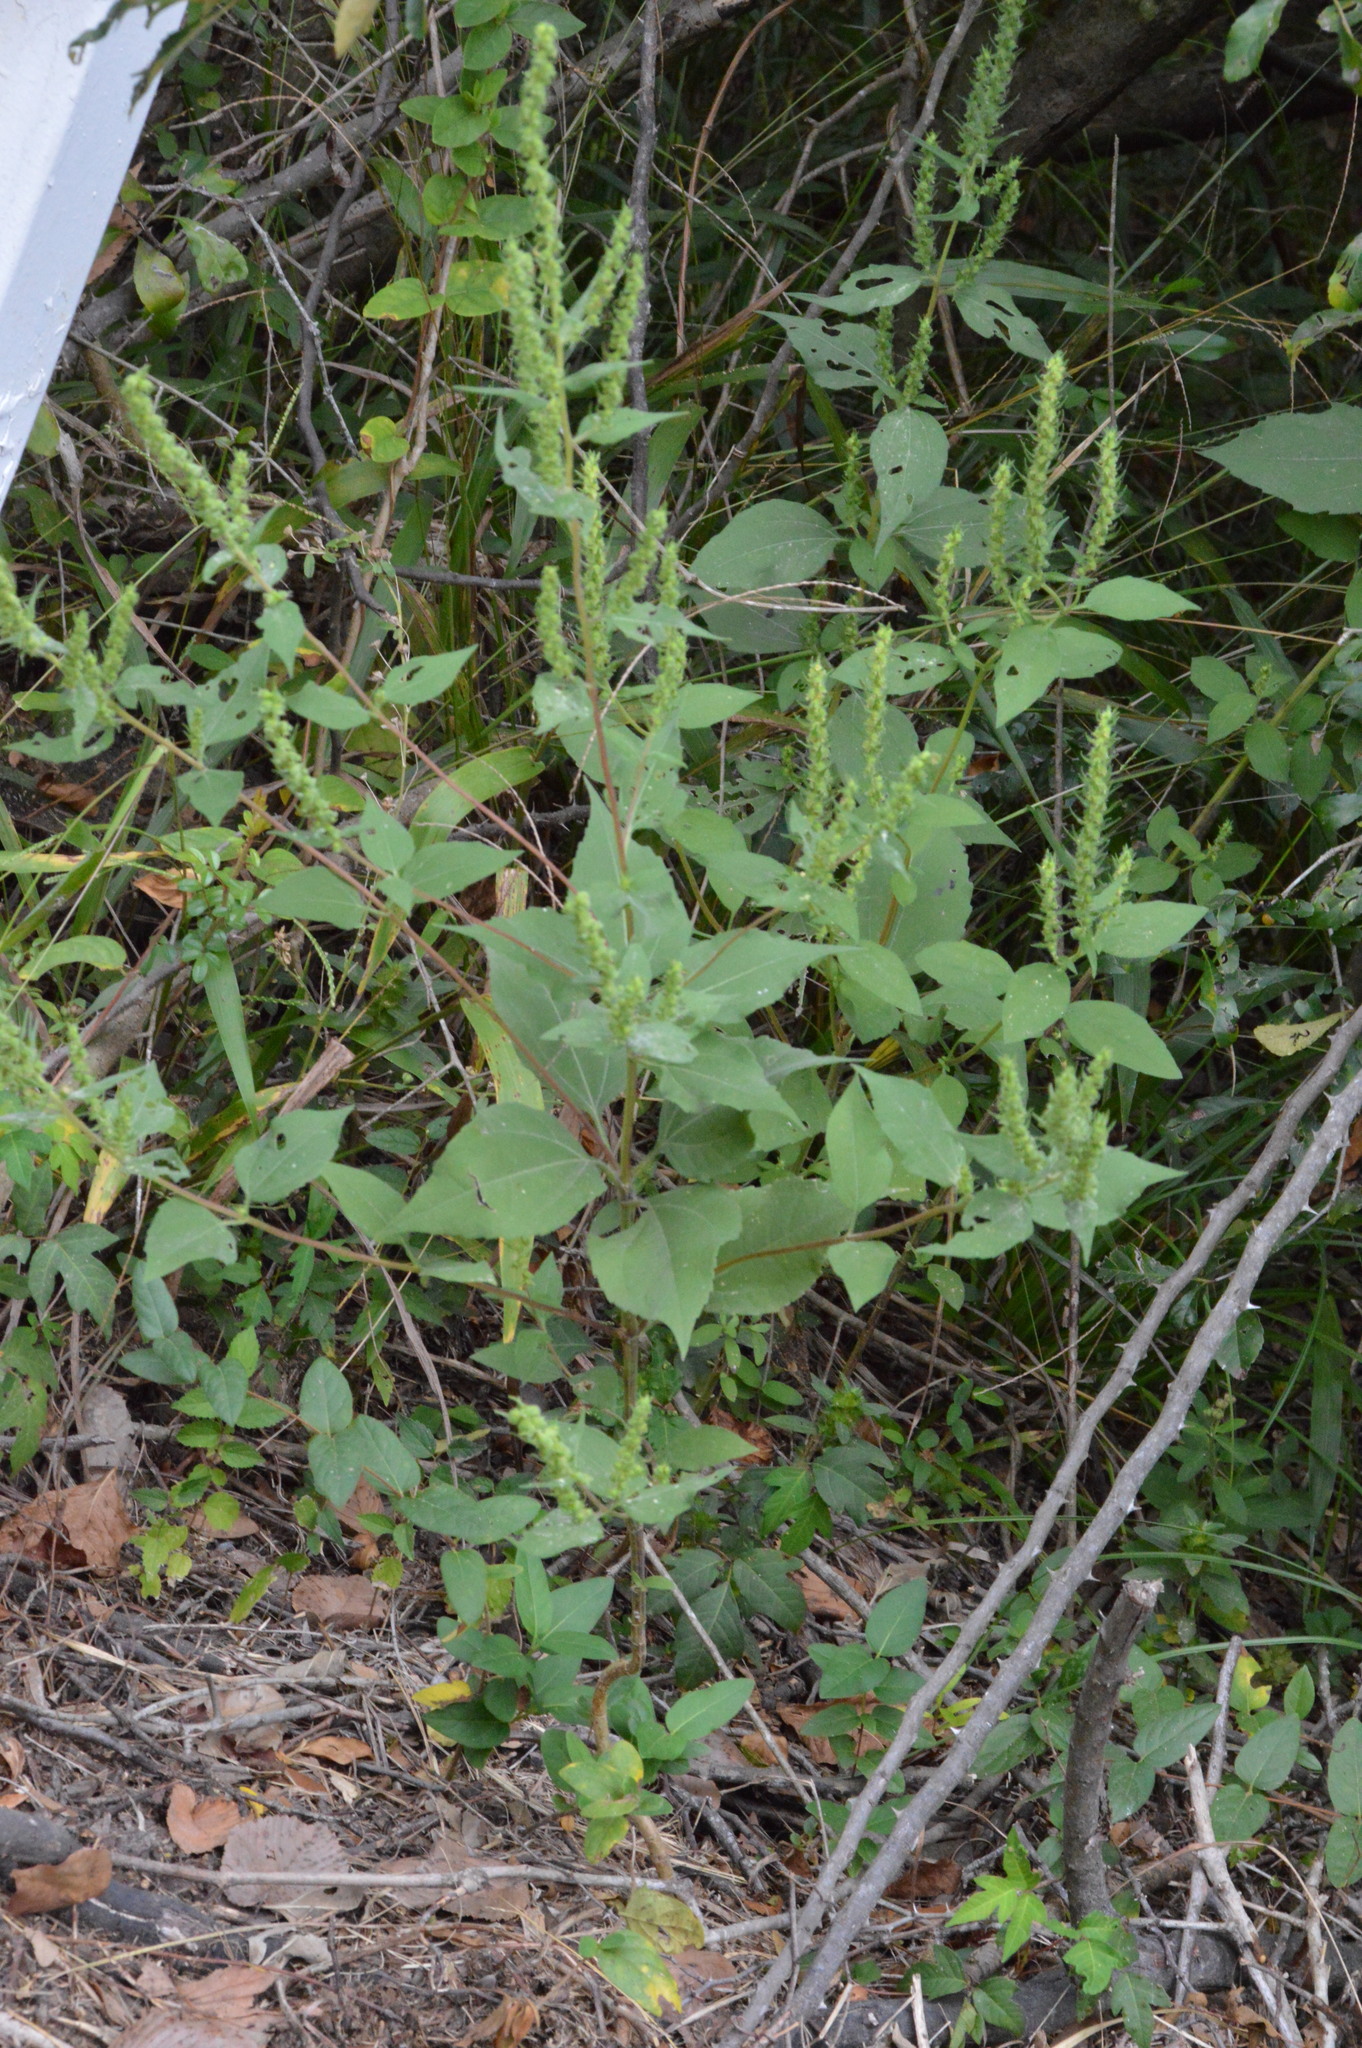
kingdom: Plantae
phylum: Tracheophyta
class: Magnoliopsida
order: Asterales
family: Asteraceae
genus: Iva
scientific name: Iva annua
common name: Marsh-elder
